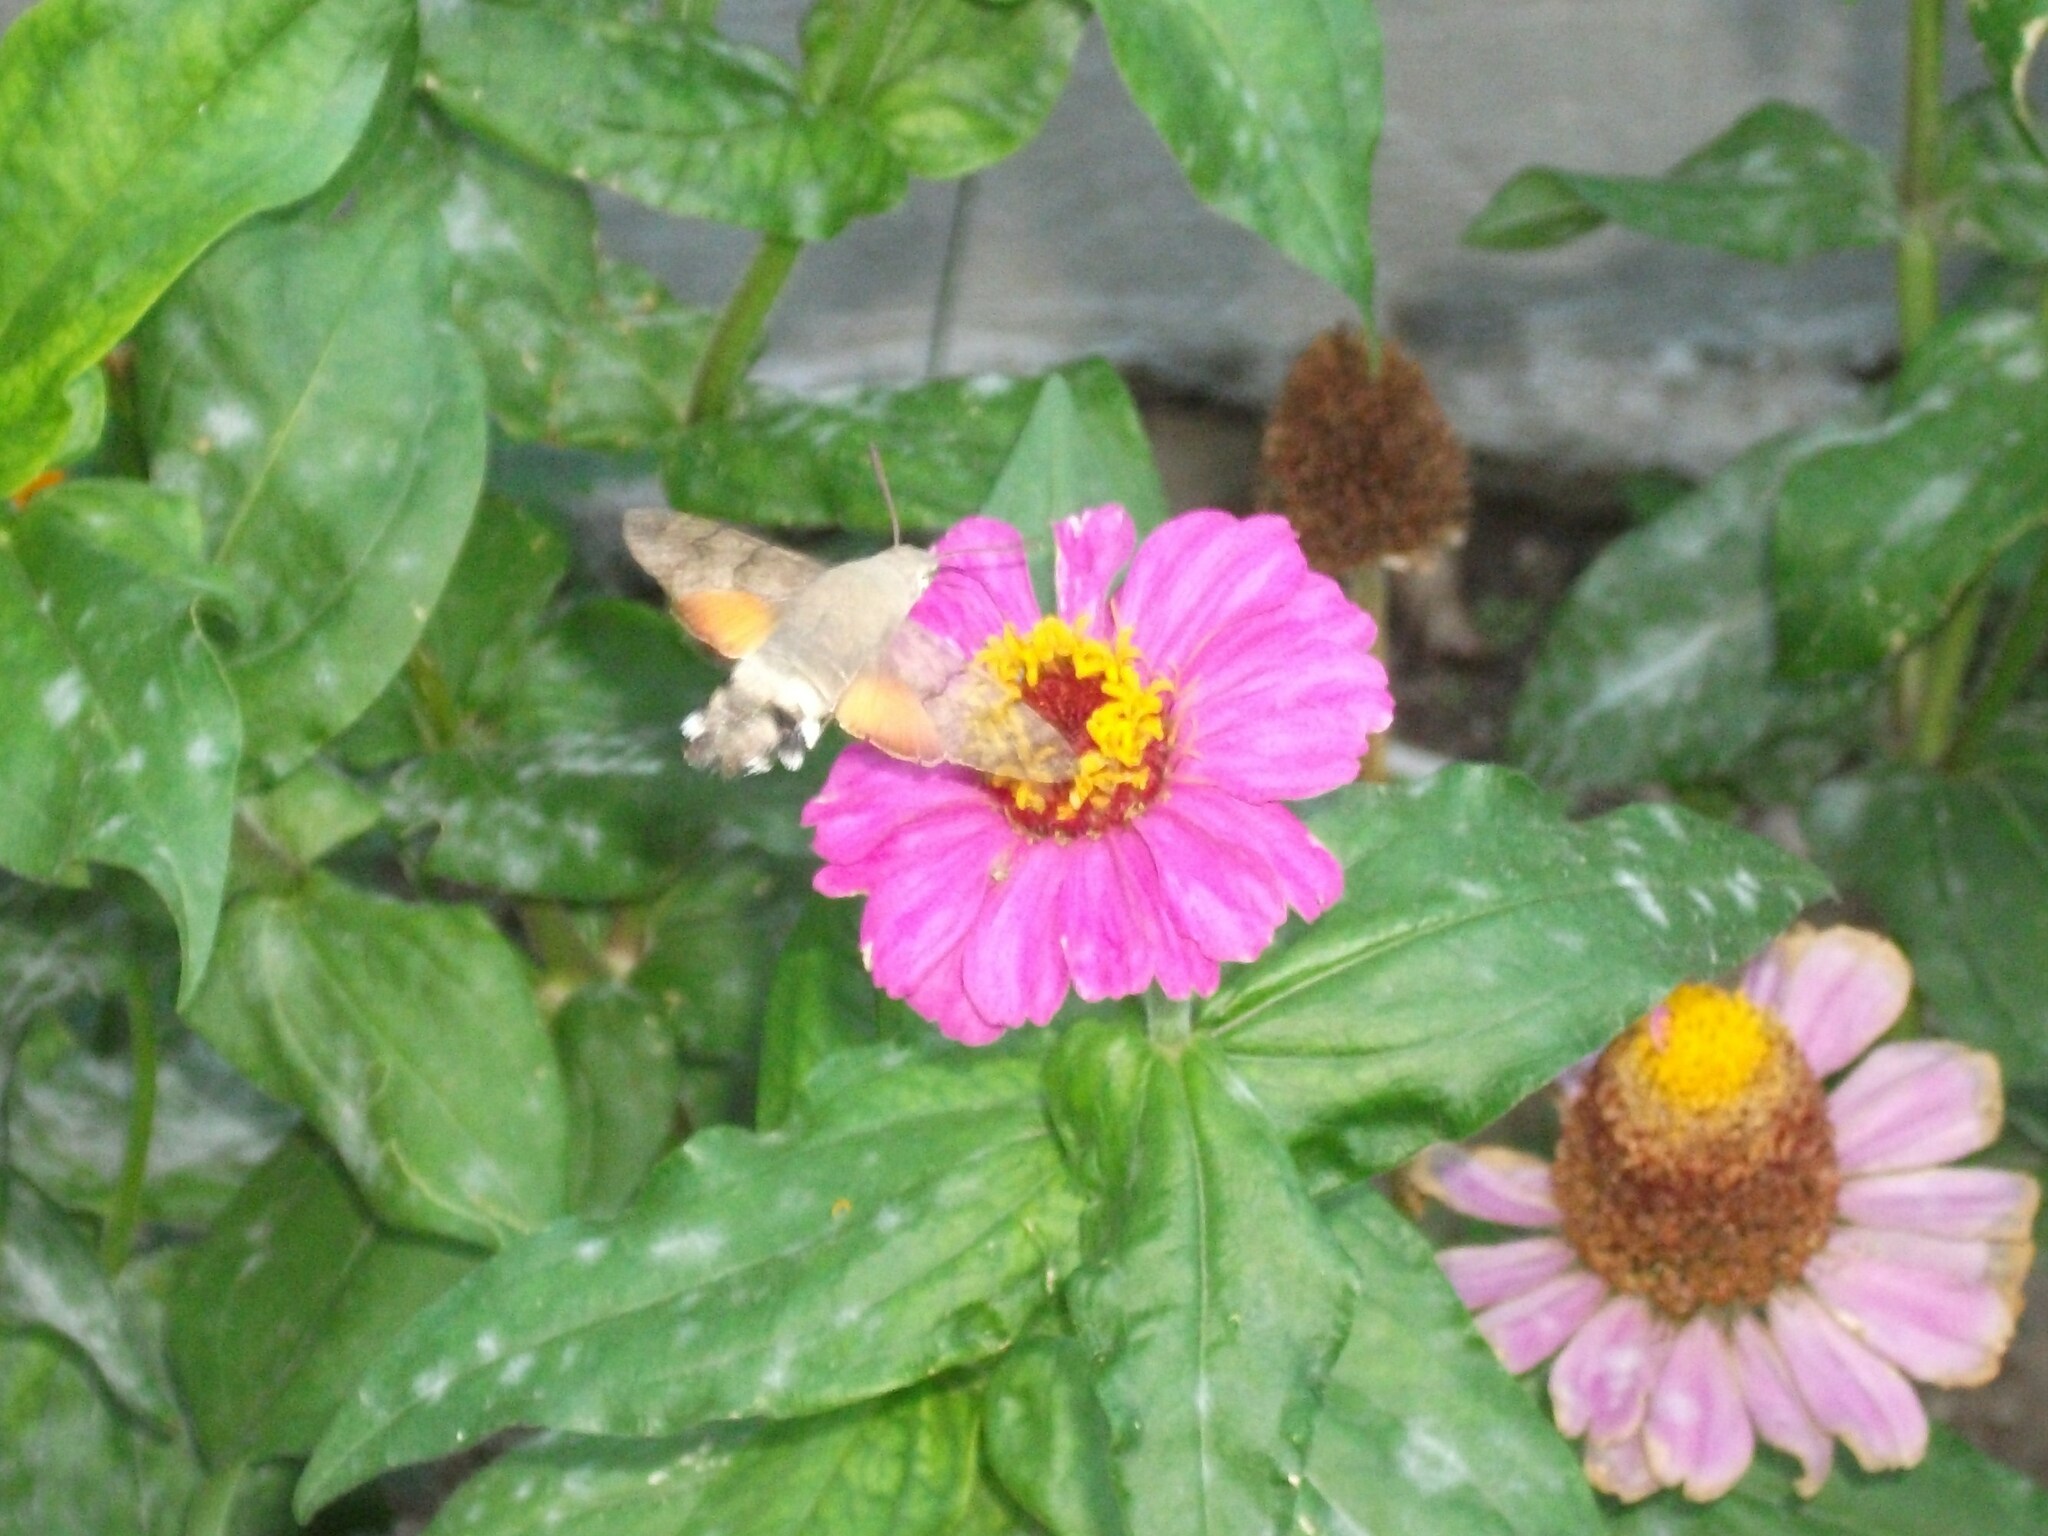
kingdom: Animalia
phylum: Arthropoda
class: Insecta
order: Lepidoptera
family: Sphingidae
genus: Macroglossum
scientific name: Macroglossum stellatarum
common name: Humming-bird hawk-moth
